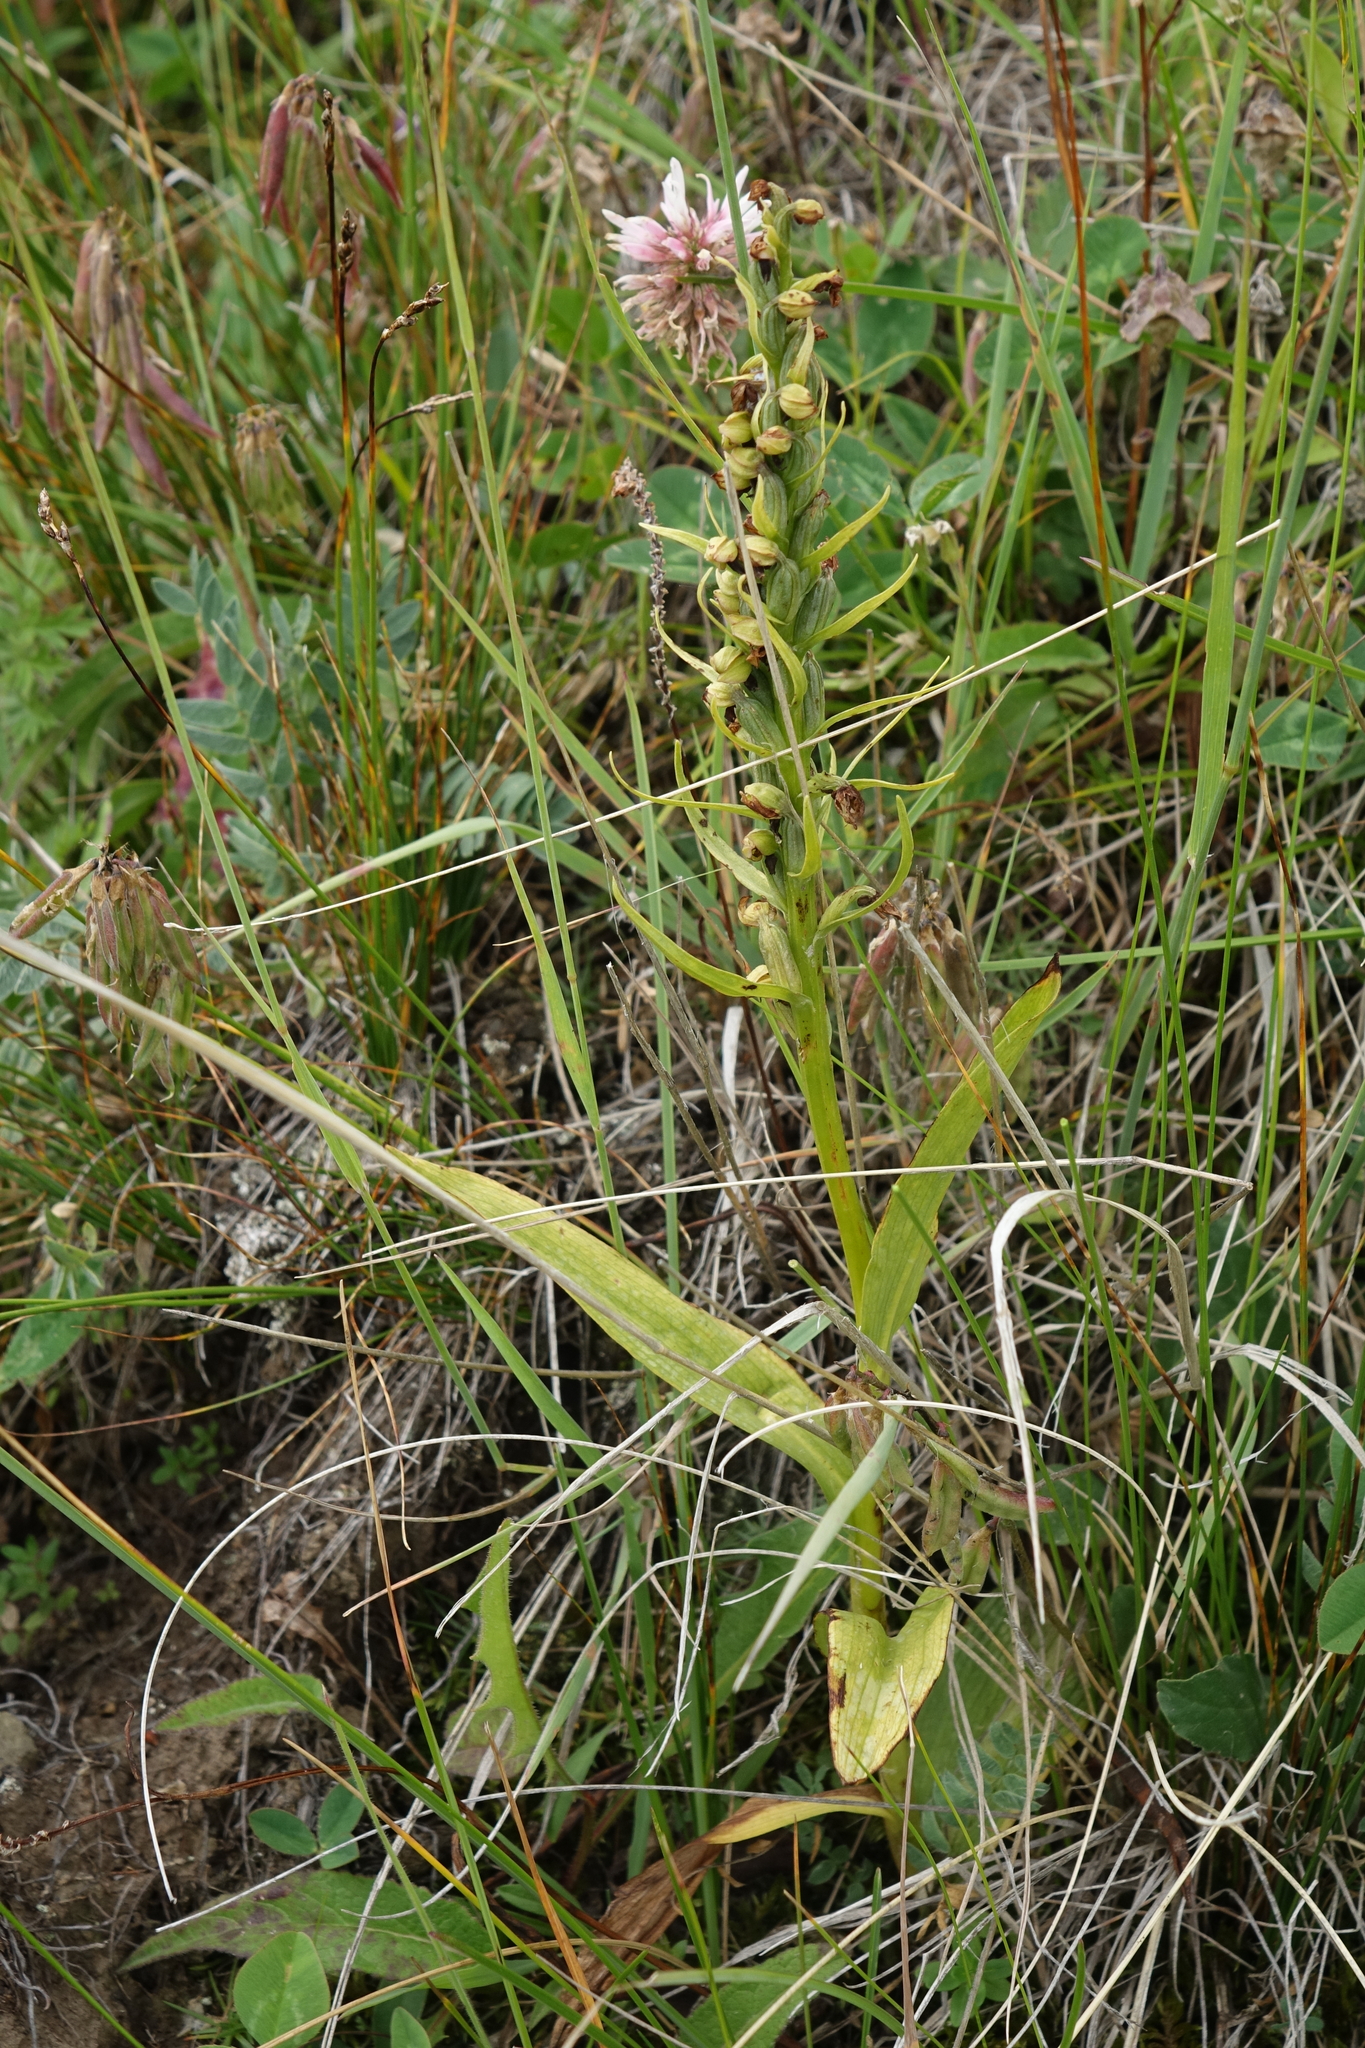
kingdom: Plantae
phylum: Tracheophyta
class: Liliopsida
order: Asparagales
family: Orchidaceae
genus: Dactylorhiza
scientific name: Dactylorhiza viridis
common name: Longbract frog orchid
